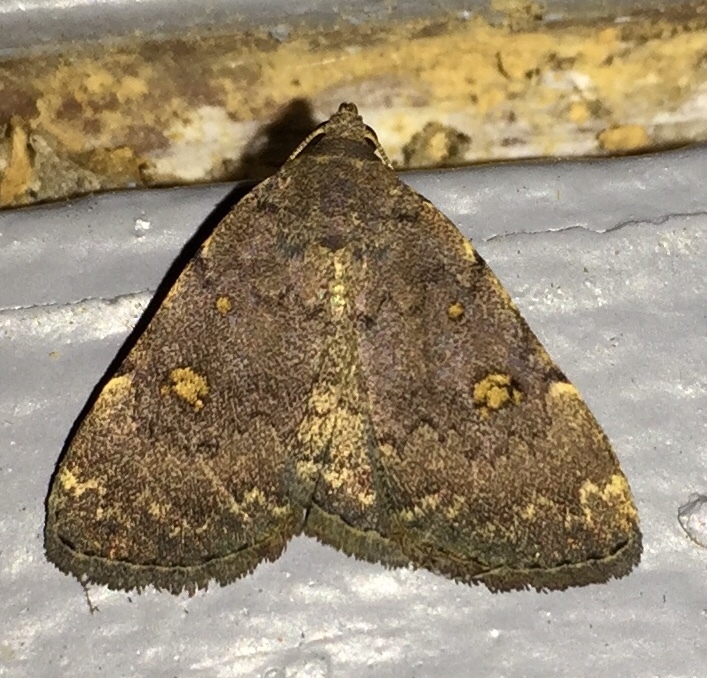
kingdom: Animalia
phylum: Arthropoda
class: Insecta
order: Lepidoptera
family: Erebidae
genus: Idia
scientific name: Idia aemula
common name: Common idia moth
